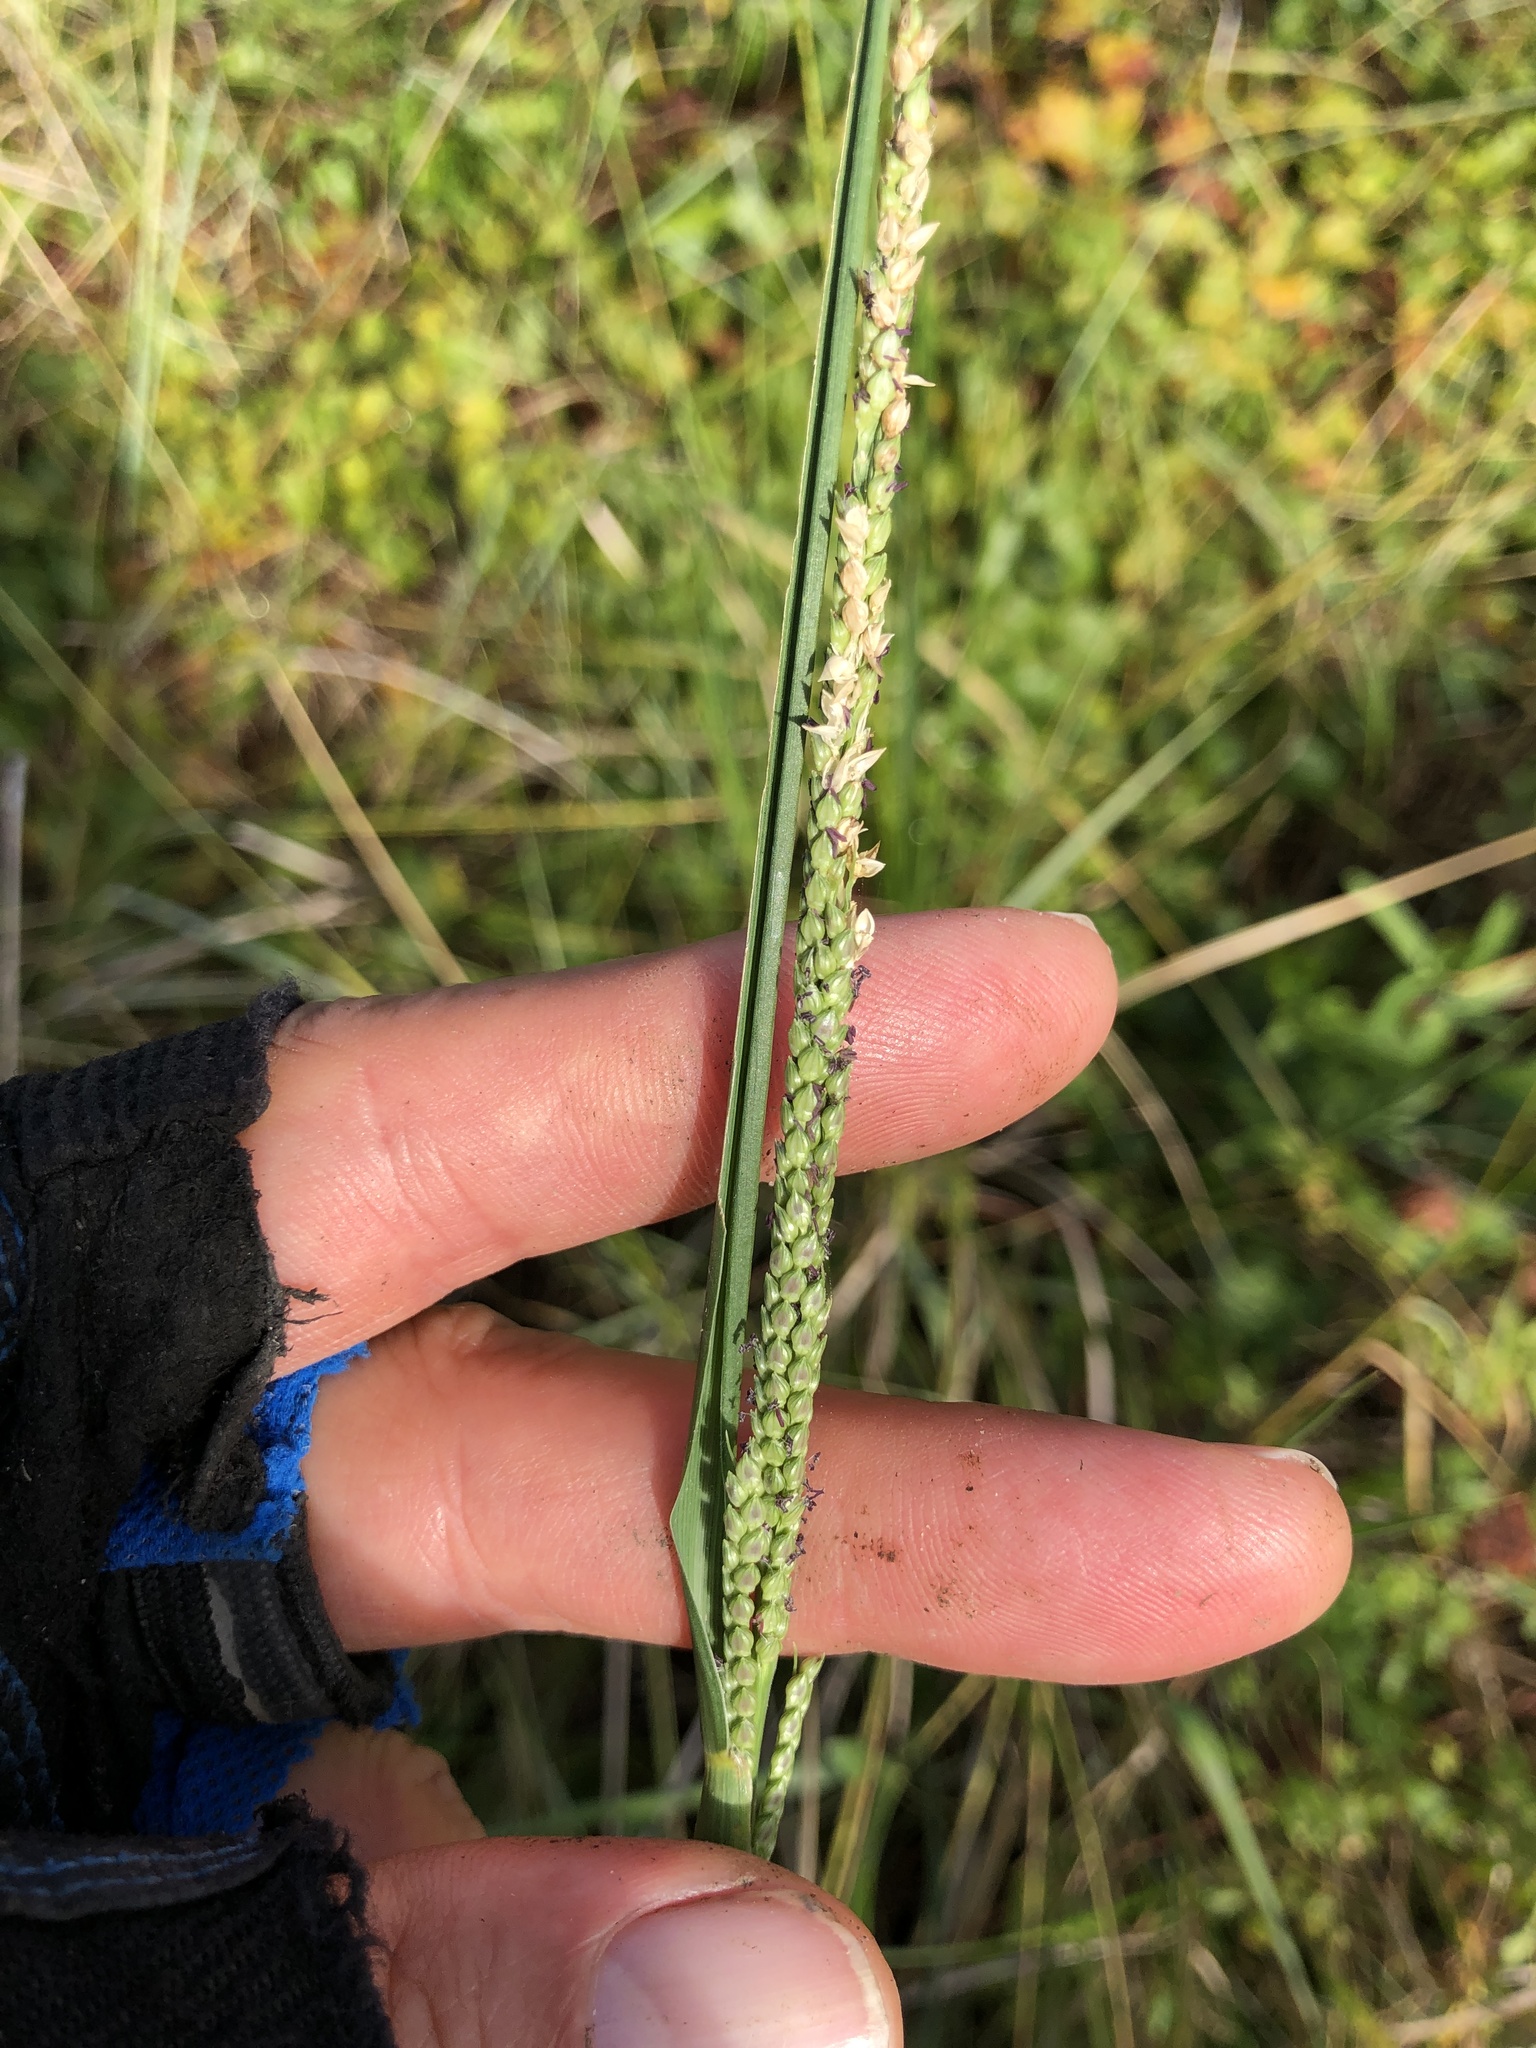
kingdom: Plantae
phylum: Tracheophyta
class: Liliopsida
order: Poales
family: Poaceae
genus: Setaria
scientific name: Setaria geminata
